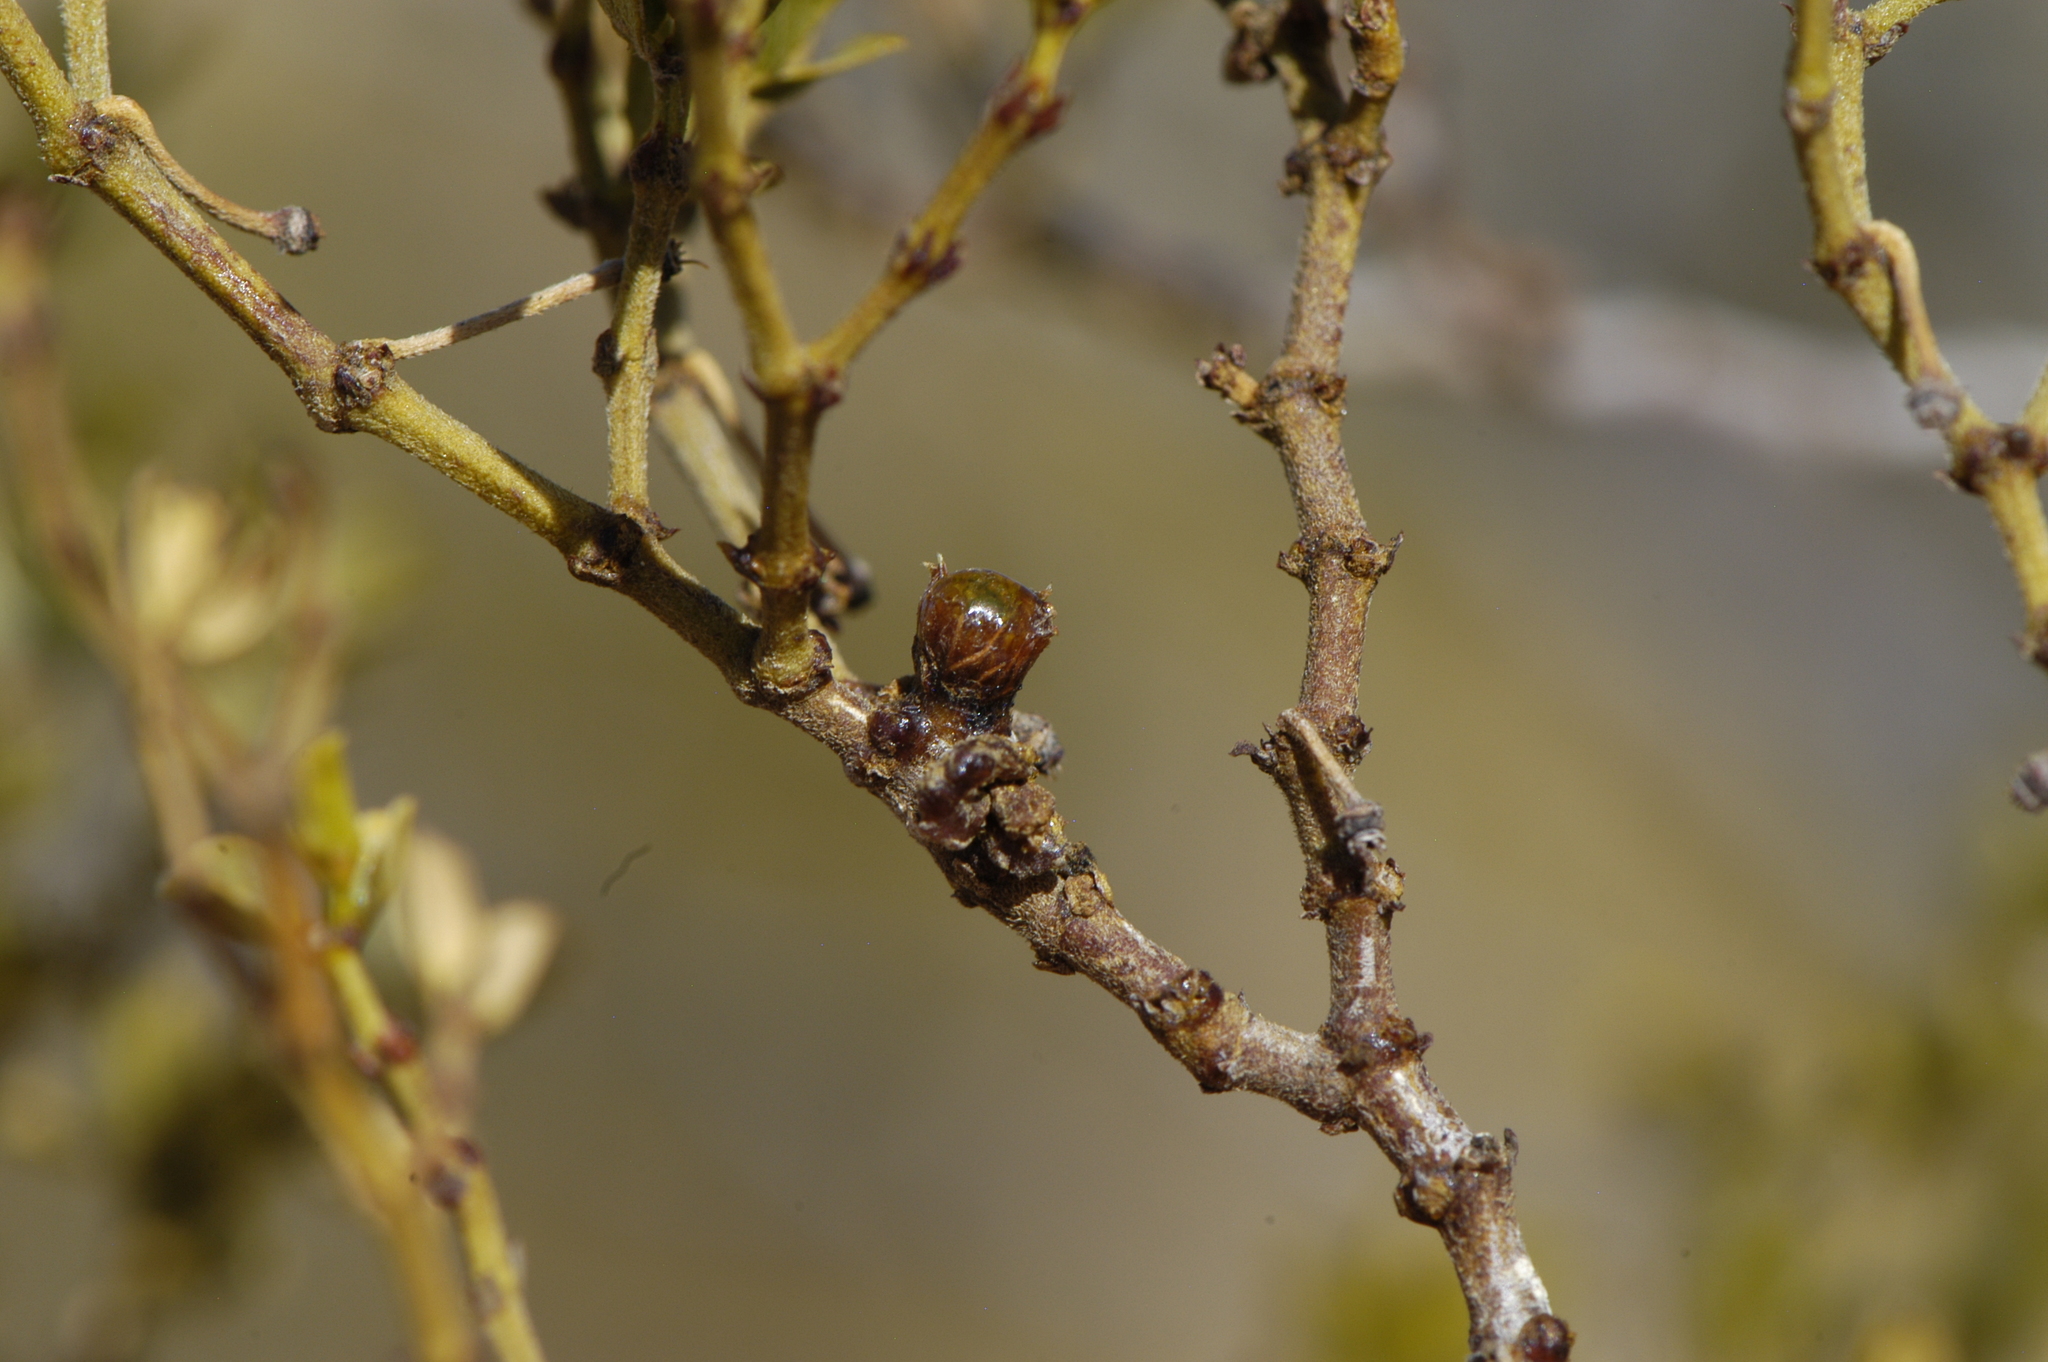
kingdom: Animalia
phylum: Arthropoda
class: Insecta
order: Diptera
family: Cecidomyiidae
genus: Asphondylia
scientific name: Asphondylia resinosa
